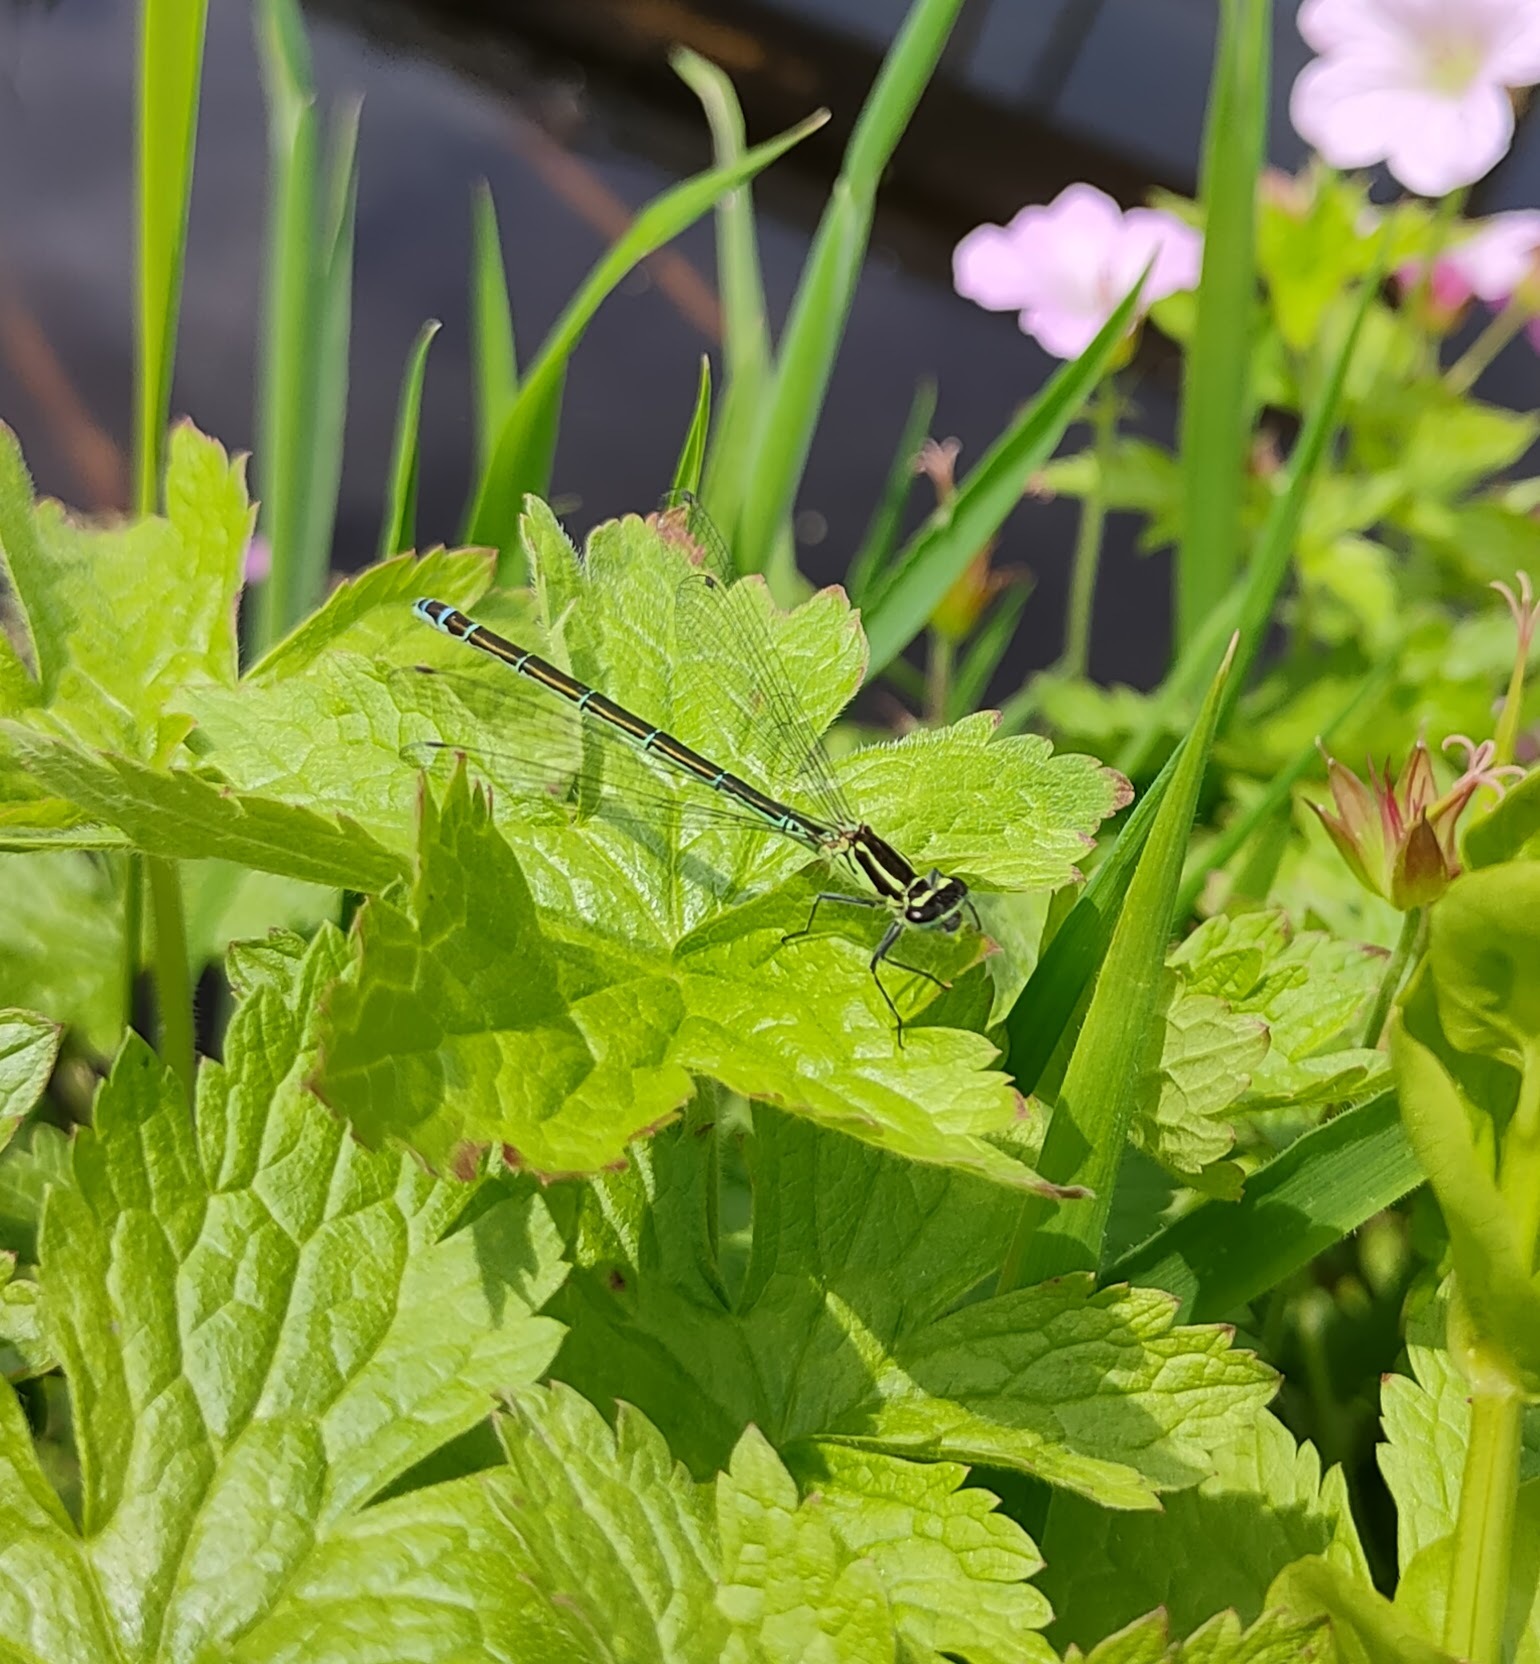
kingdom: Animalia
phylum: Arthropoda
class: Insecta
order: Odonata
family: Coenagrionidae
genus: Coenagrion
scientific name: Coenagrion puella
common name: Azure damselfly
